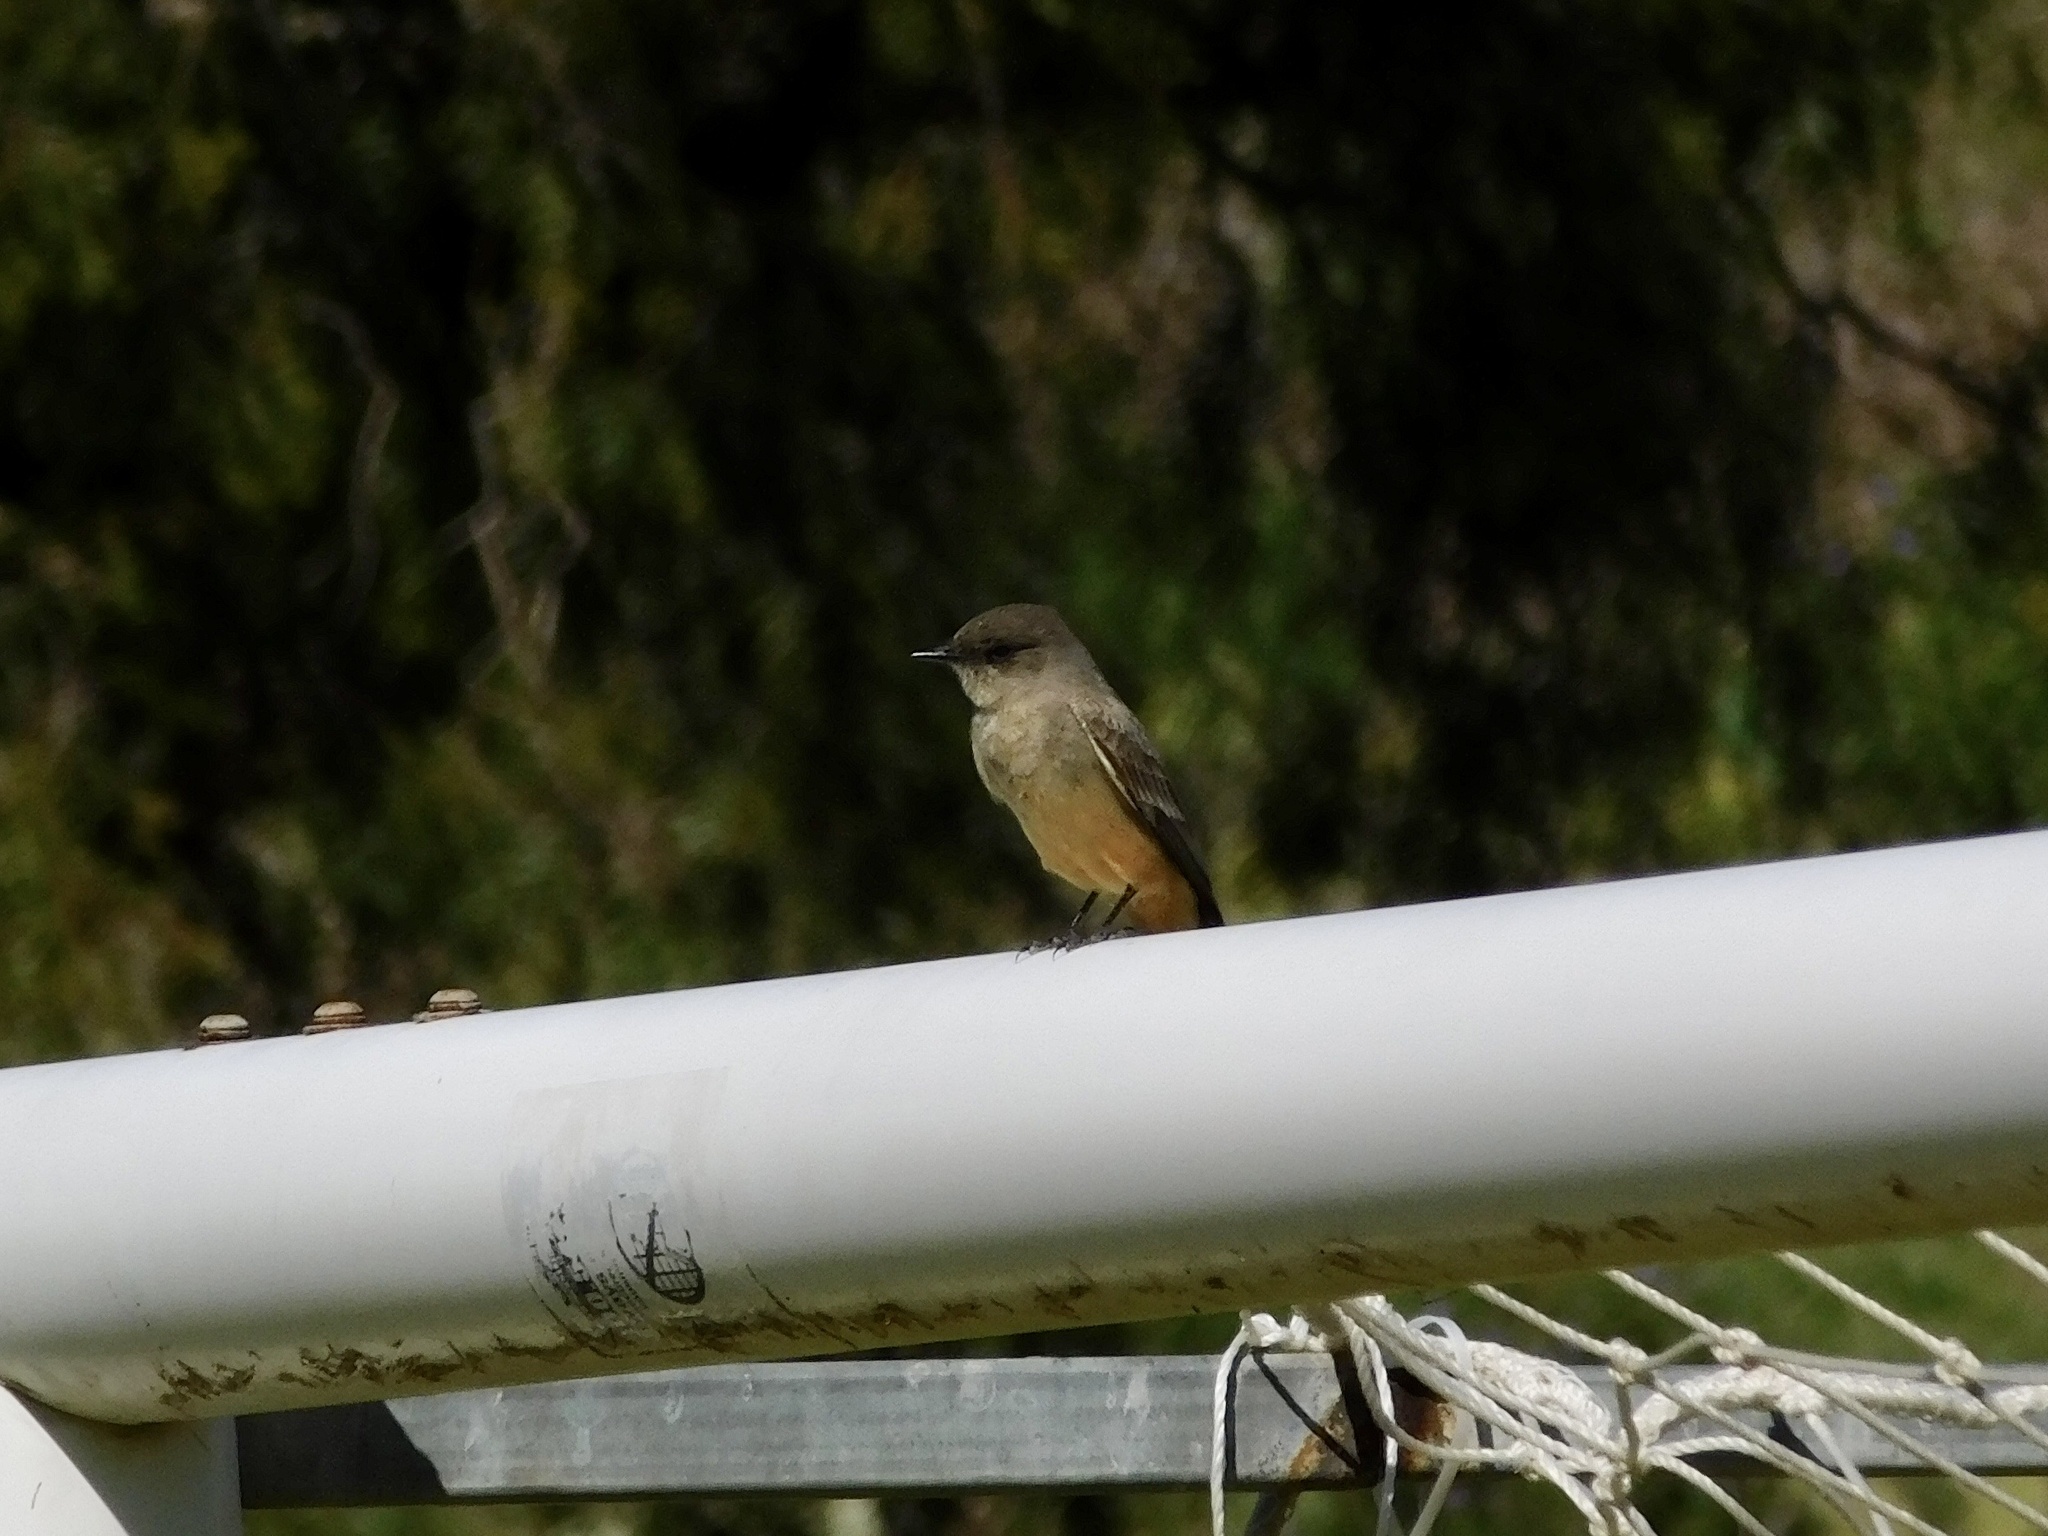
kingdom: Animalia
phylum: Chordata
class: Aves
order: Passeriformes
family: Tyrannidae
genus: Sayornis
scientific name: Sayornis saya
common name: Say's phoebe
